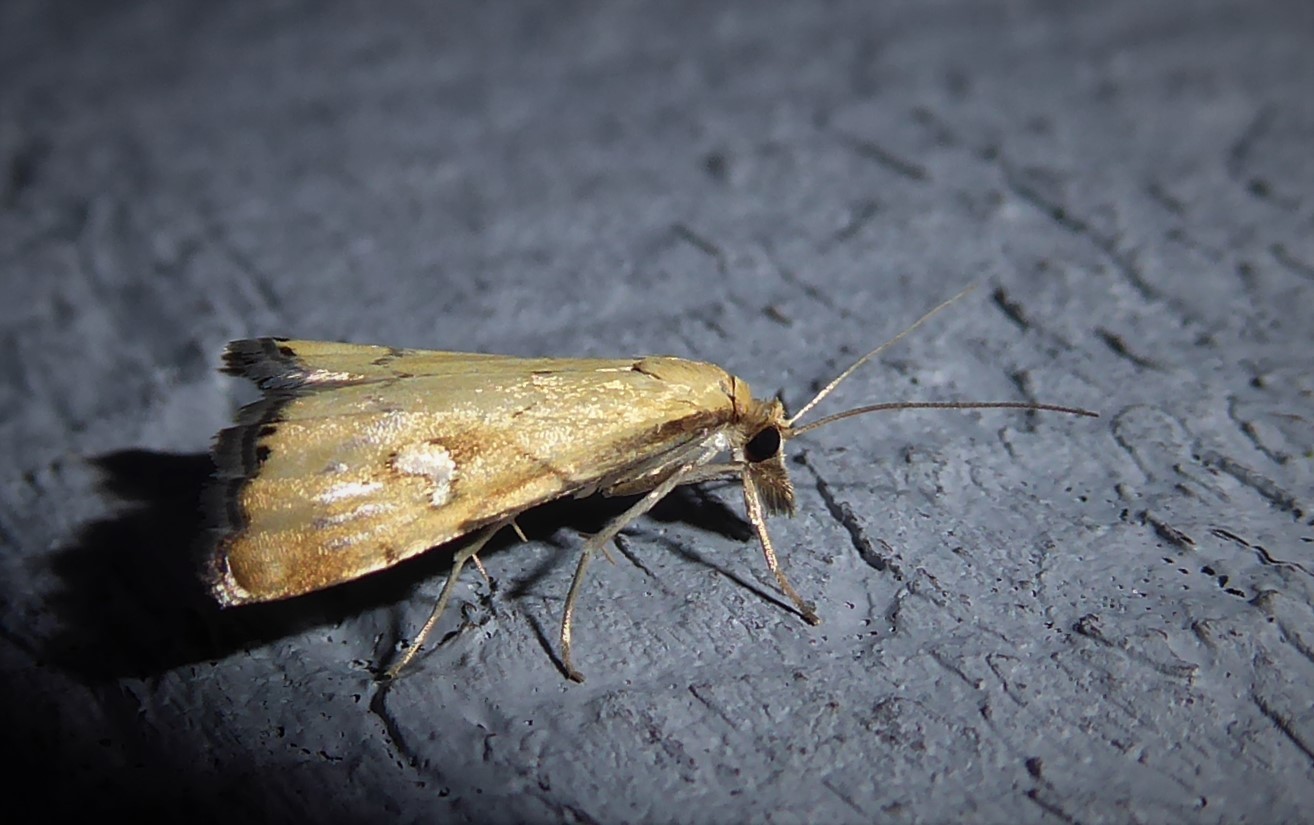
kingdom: Animalia
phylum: Arthropoda
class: Insecta
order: Lepidoptera
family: Crambidae
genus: Glaucocharis
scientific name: Glaucocharis lepidella
